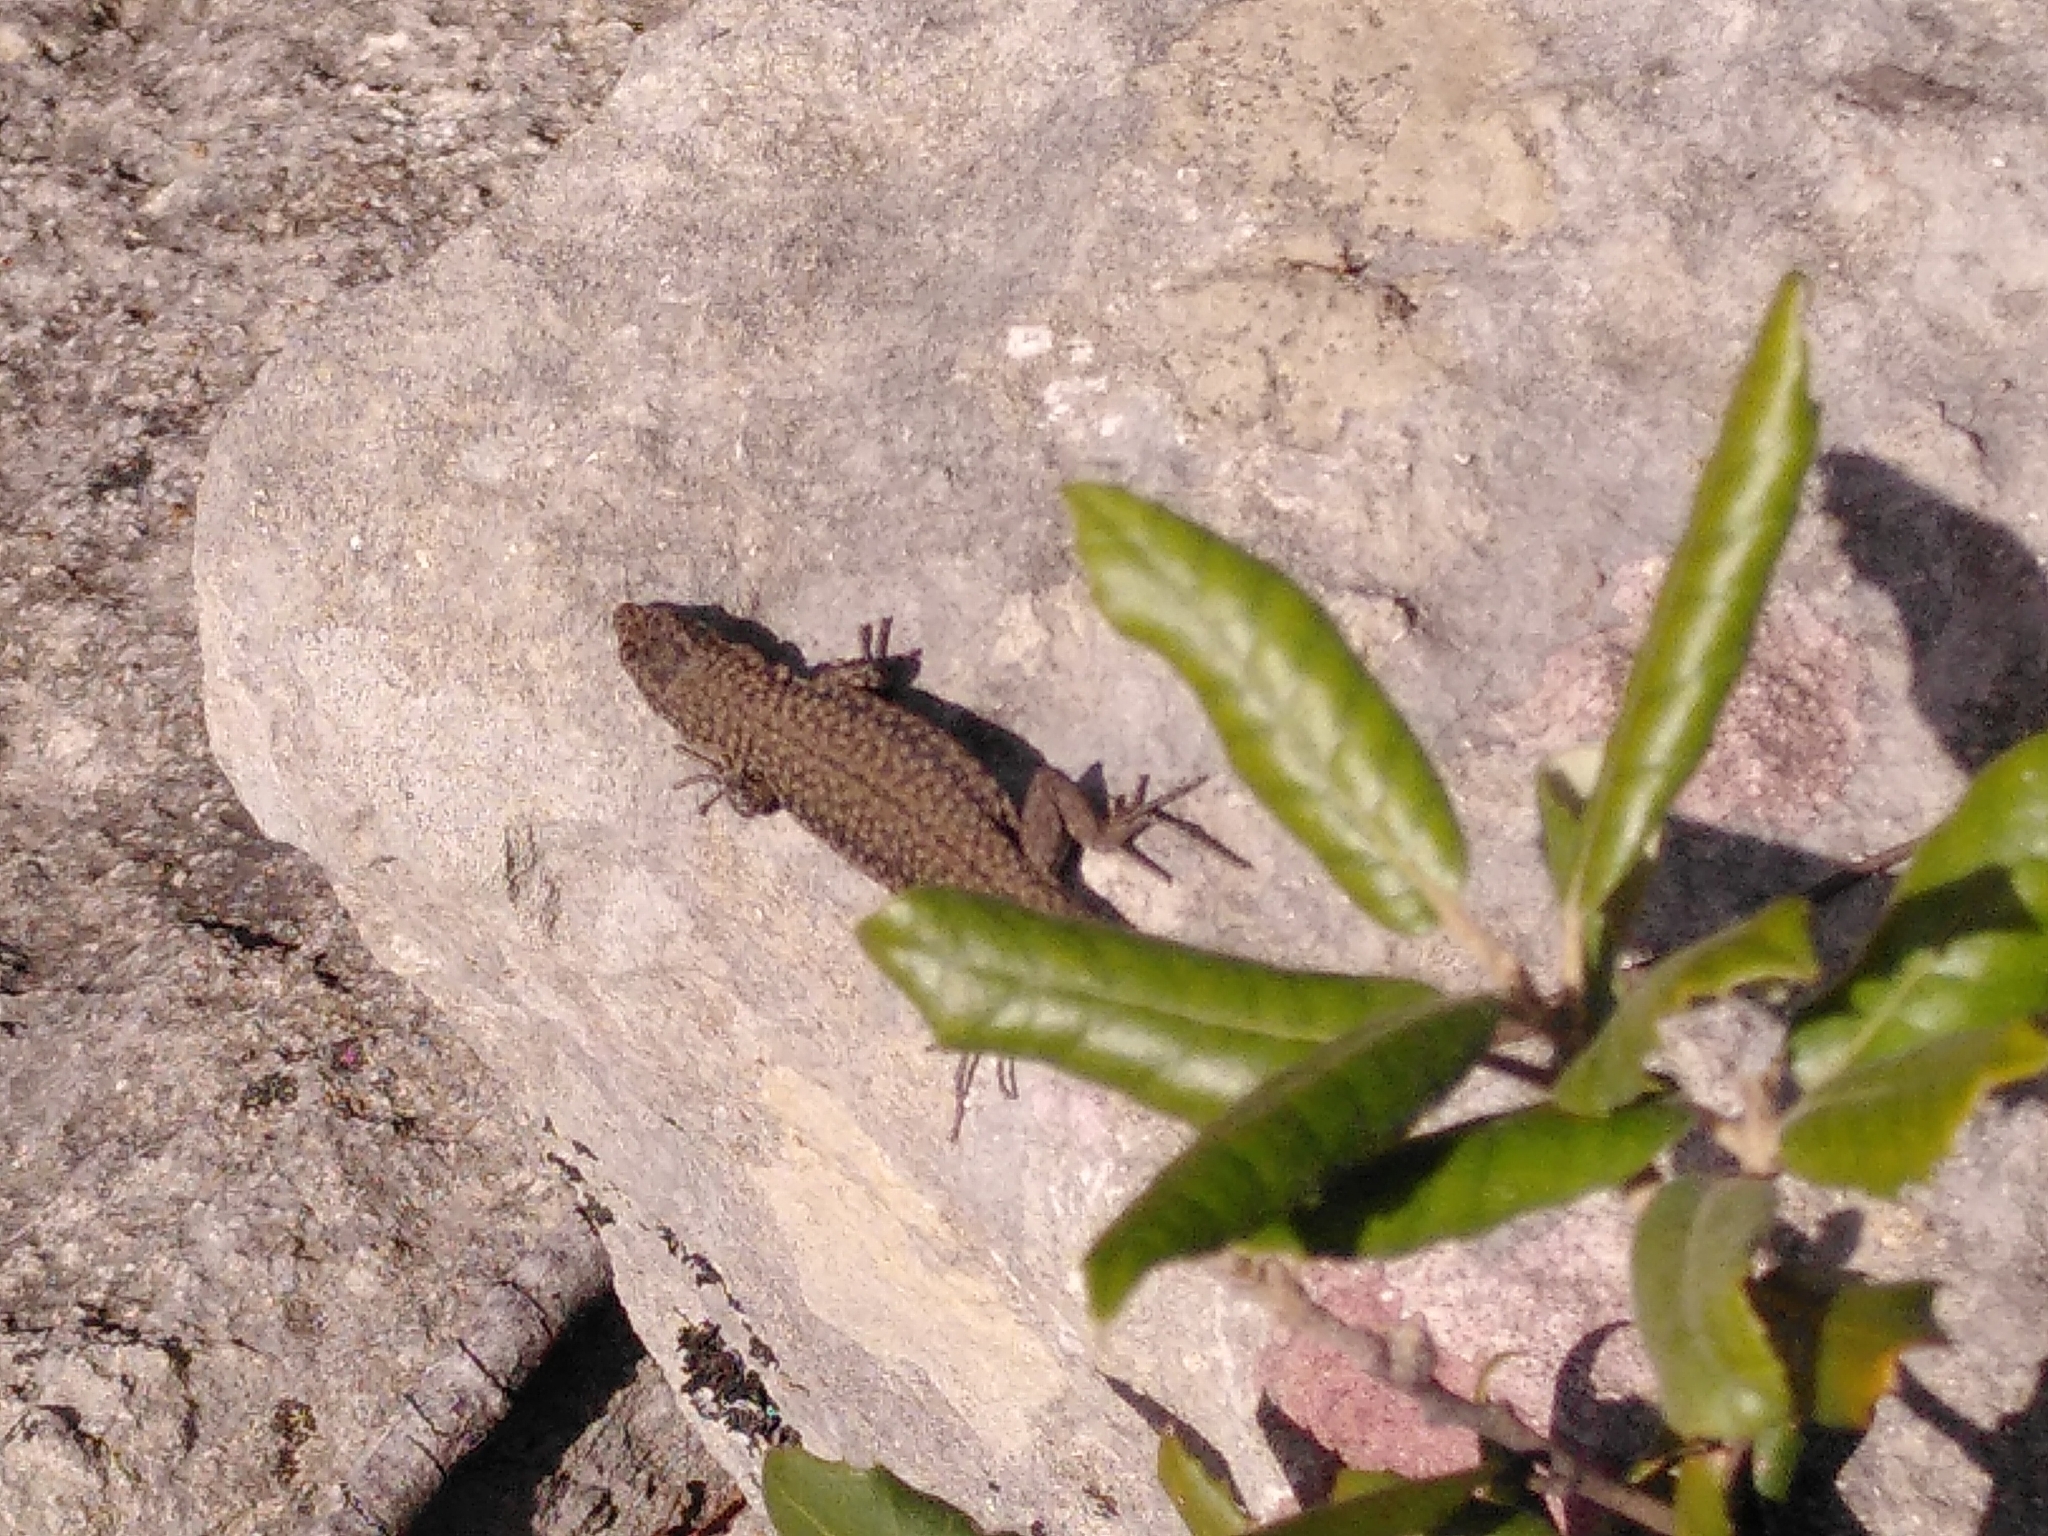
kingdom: Animalia
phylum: Chordata
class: Squamata
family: Lacertidae
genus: Podarcis
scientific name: Podarcis liolepis
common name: Catalonian wall lizard
